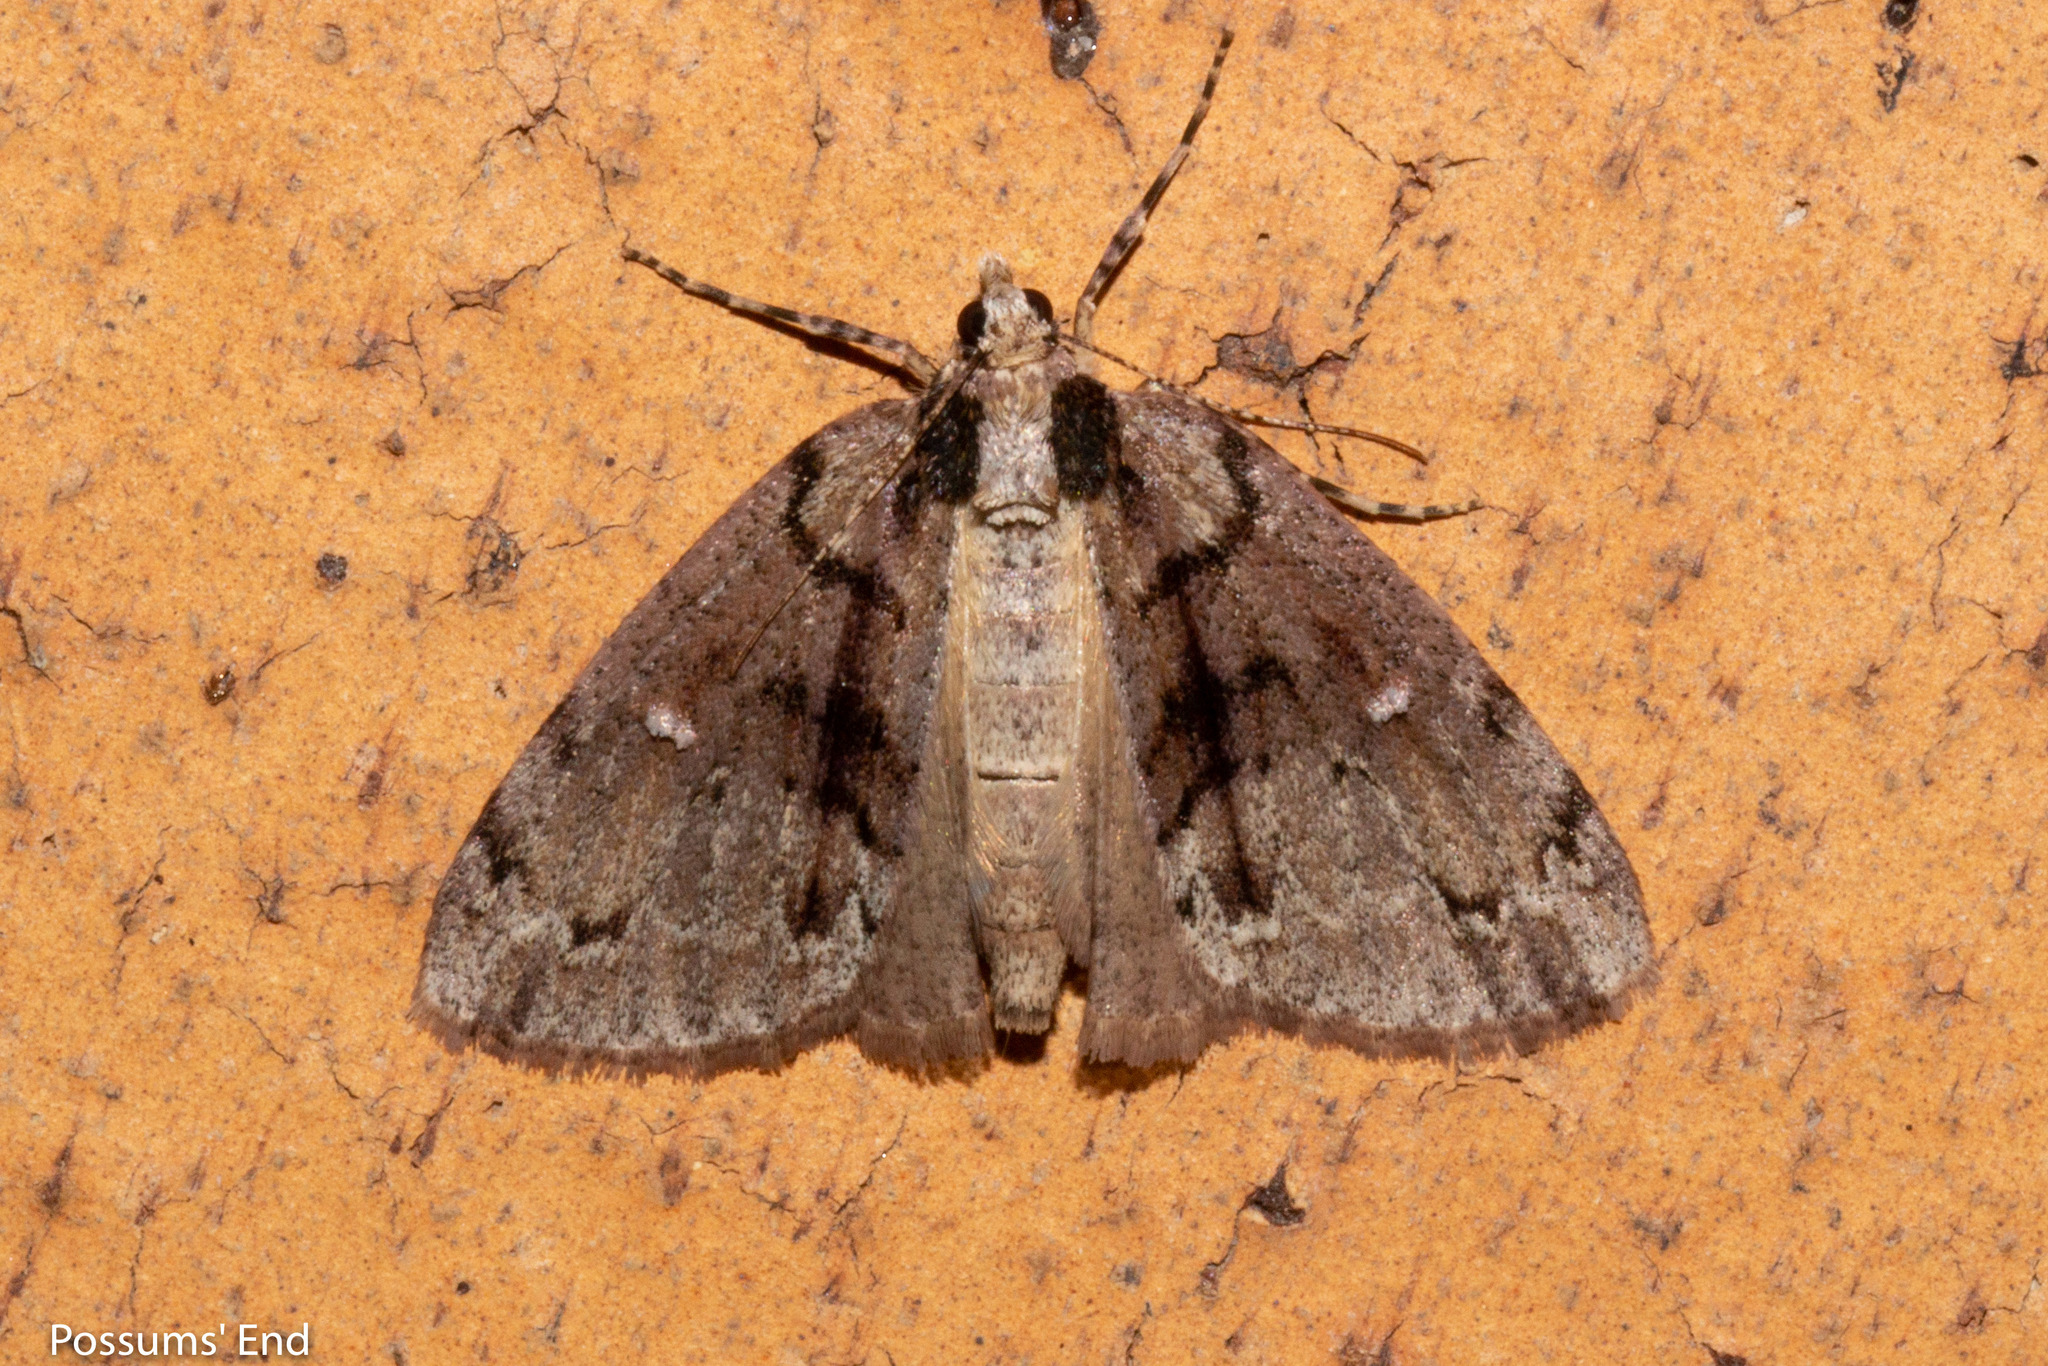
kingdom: Animalia
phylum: Arthropoda
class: Insecta
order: Lepidoptera
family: Geometridae
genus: Pseudocoremia
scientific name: Pseudocoremia suavis
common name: Common forest looper
